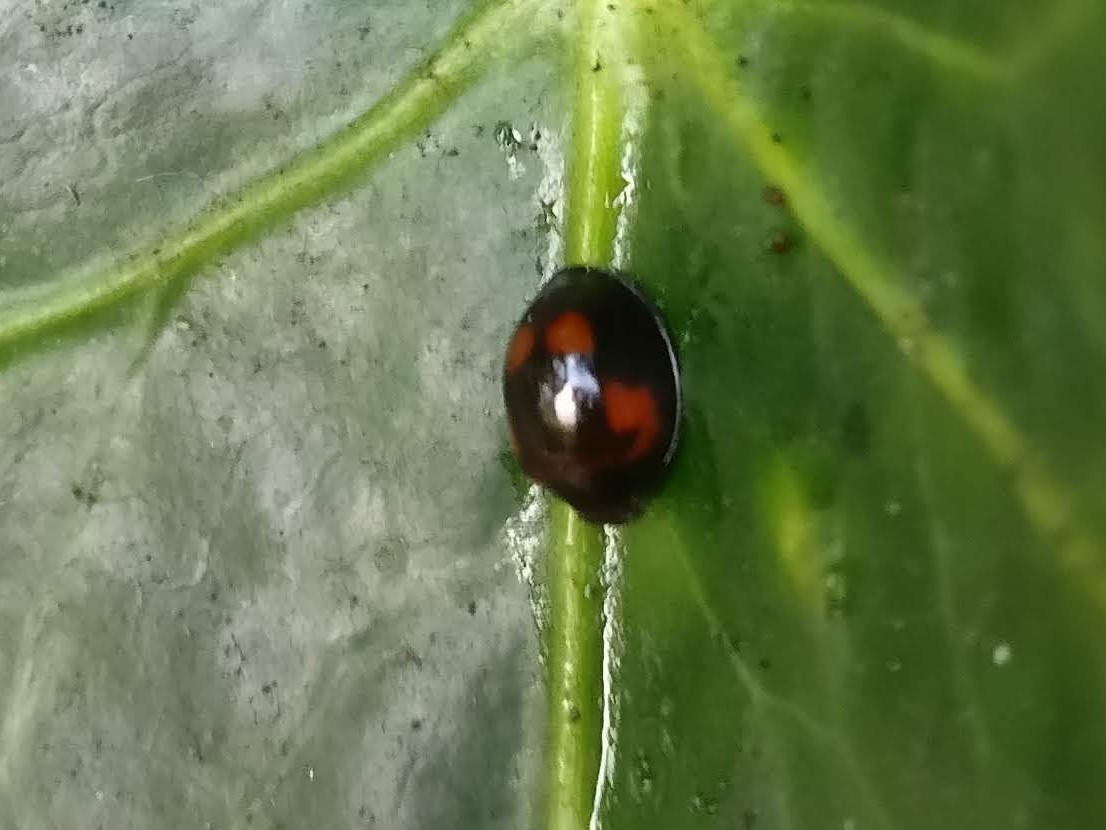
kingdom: Animalia
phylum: Arthropoda
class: Insecta
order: Coleoptera
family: Coccinellidae
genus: Brumus
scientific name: Brumus quadripustulatus
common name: Ladybird beetle
